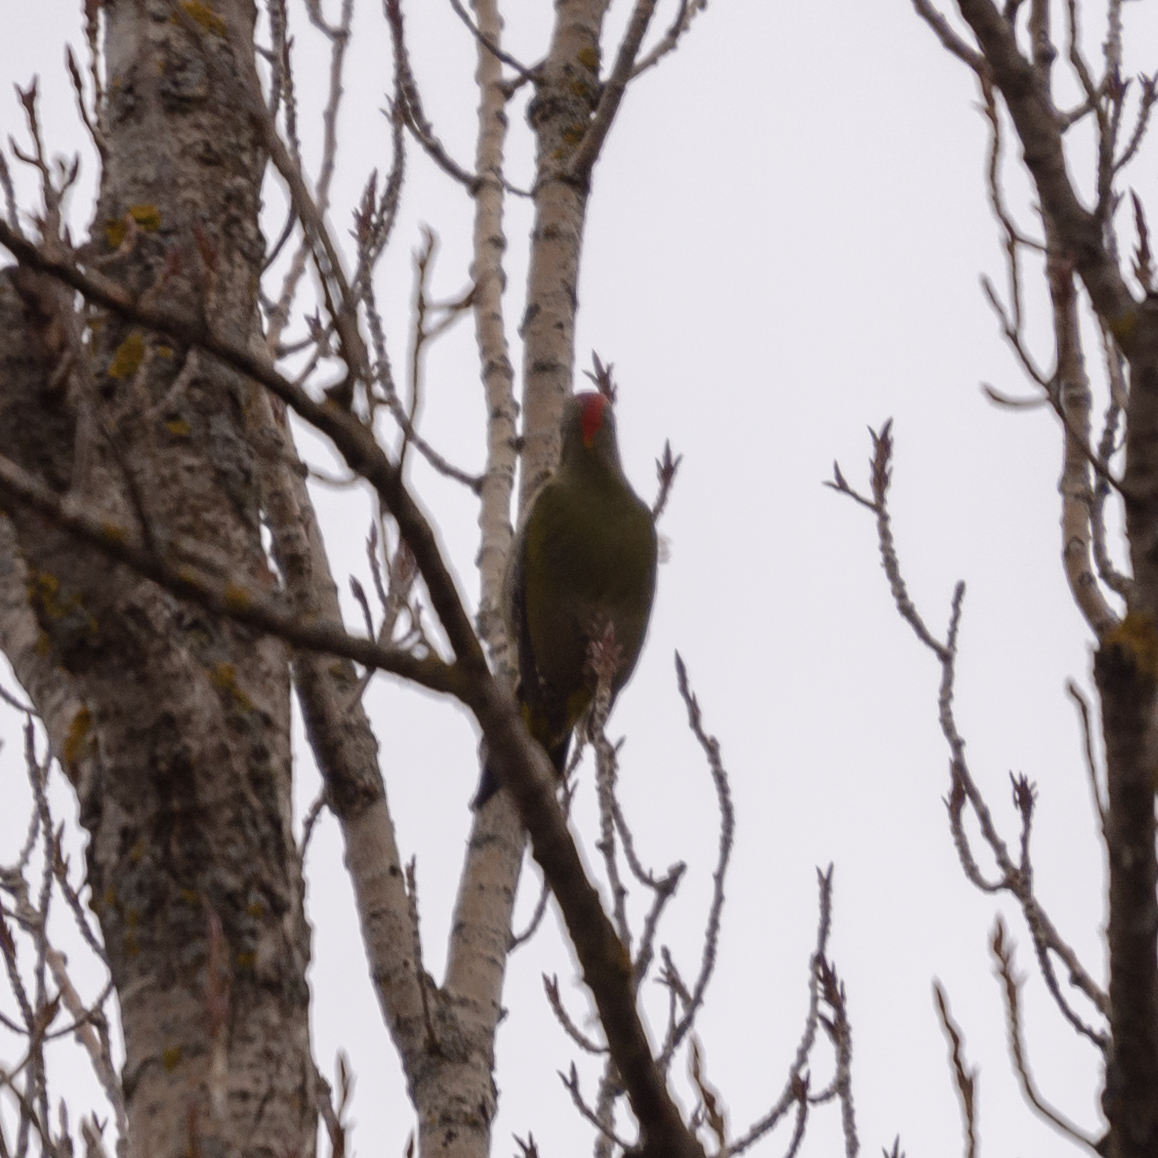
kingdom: Animalia
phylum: Chordata
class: Aves
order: Piciformes
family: Picidae
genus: Picus
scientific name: Picus sharpei
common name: Iberian green woodpecker
